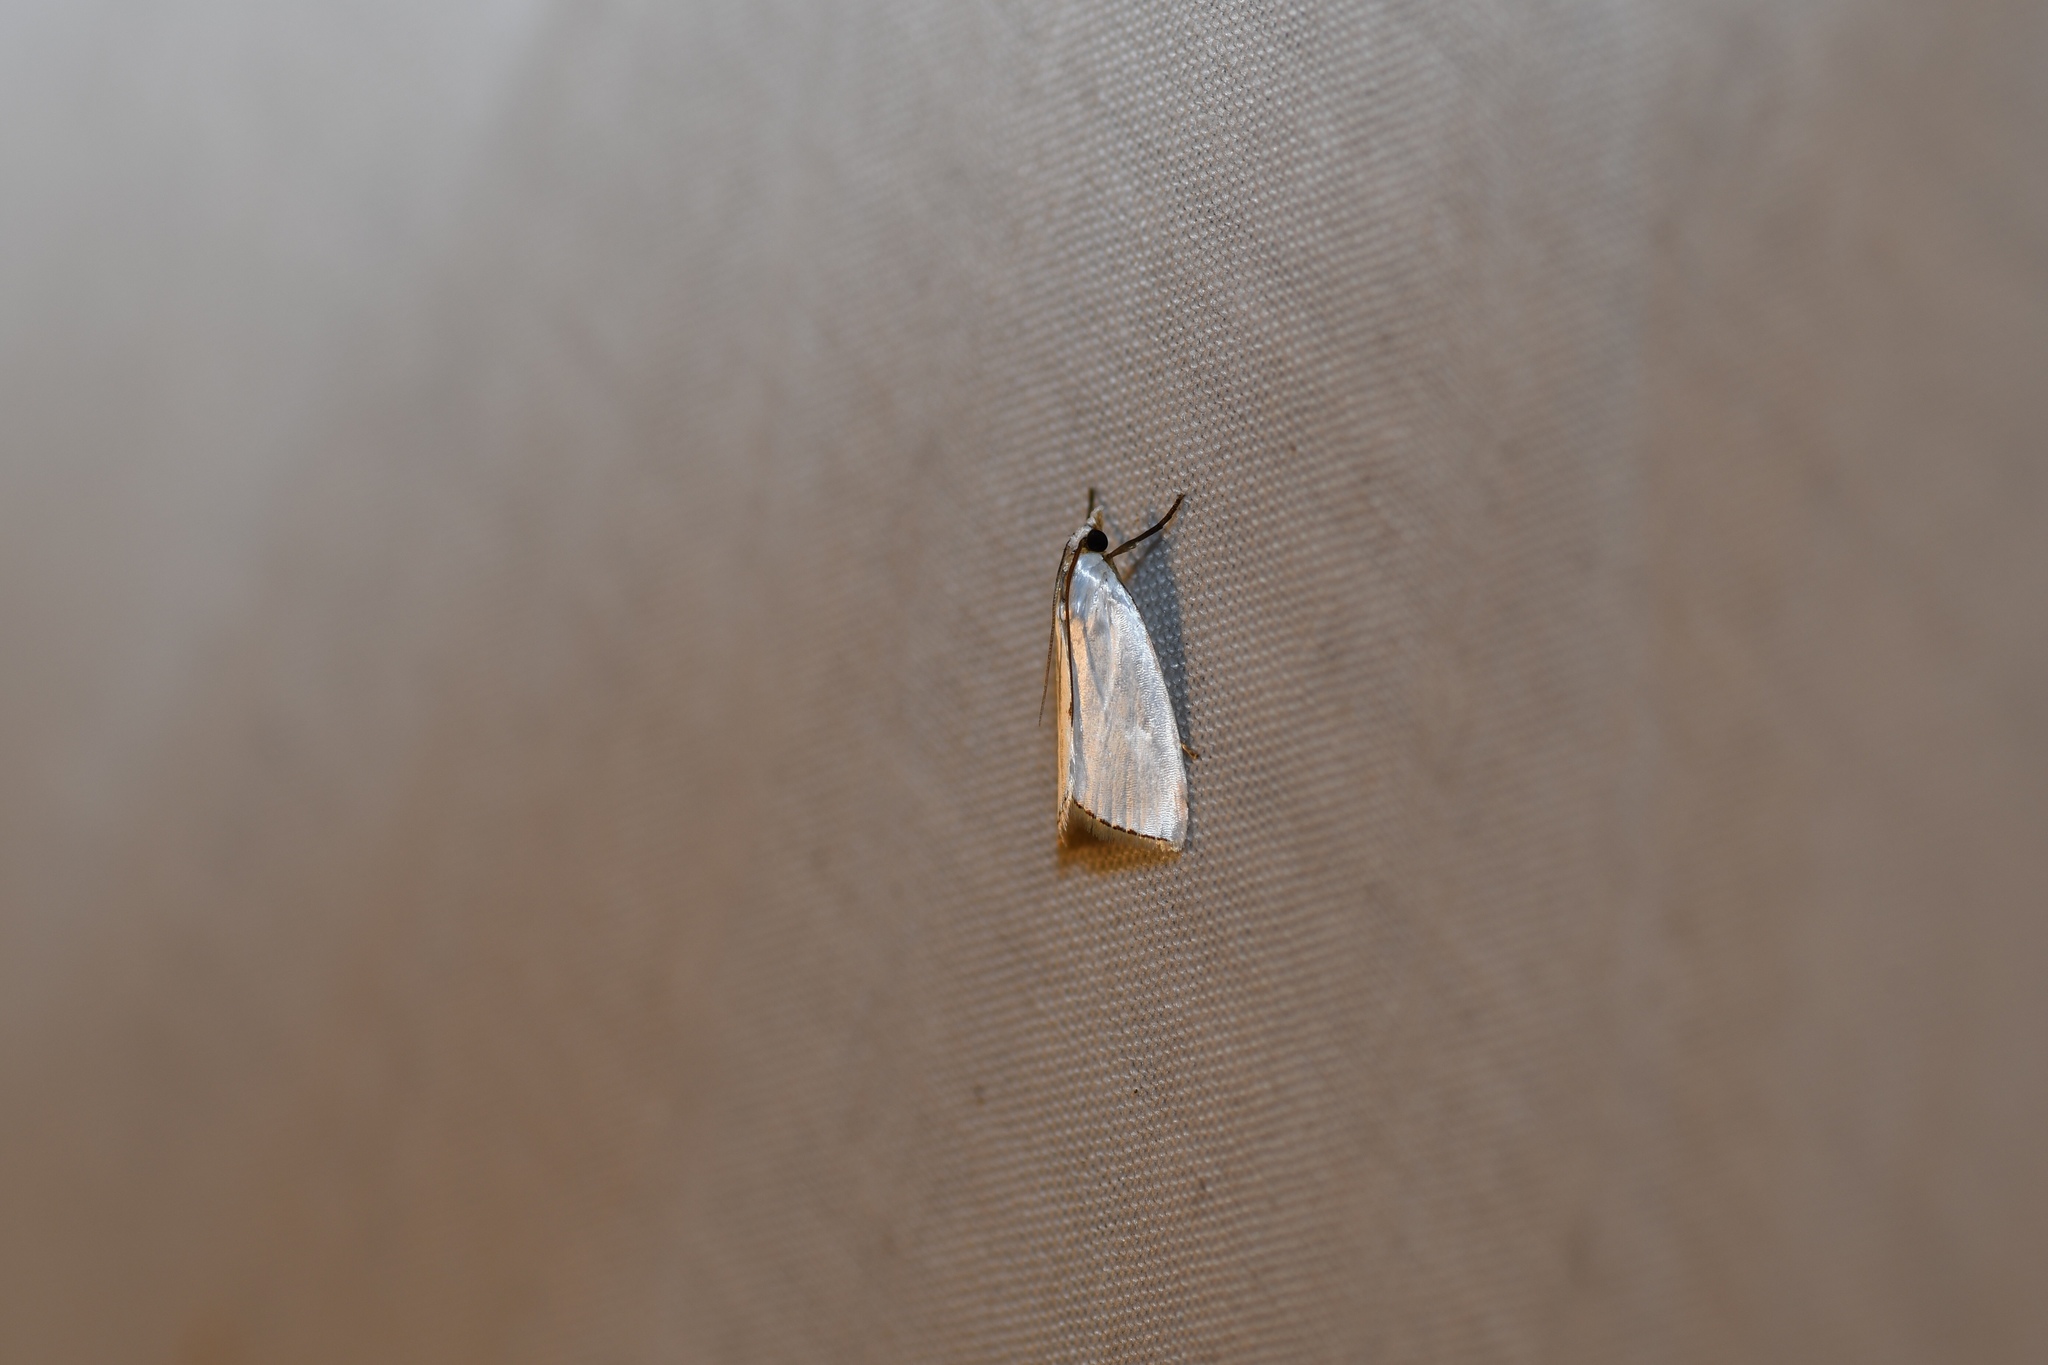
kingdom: Animalia
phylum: Arthropoda
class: Insecta
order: Lepidoptera
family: Crambidae
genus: Argyria
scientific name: Argyria nivalis
